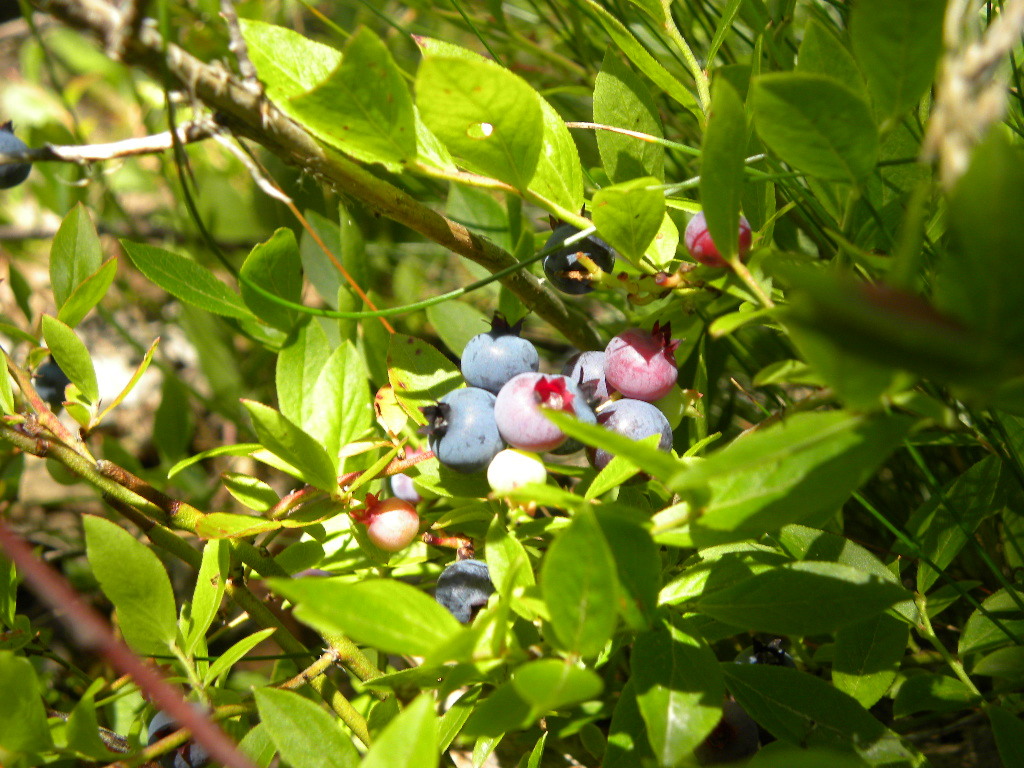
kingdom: Plantae
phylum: Tracheophyta
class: Magnoliopsida
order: Ericales
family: Ericaceae
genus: Vaccinium
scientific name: Vaccinium angustifolium
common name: Early lowbush blueberry
